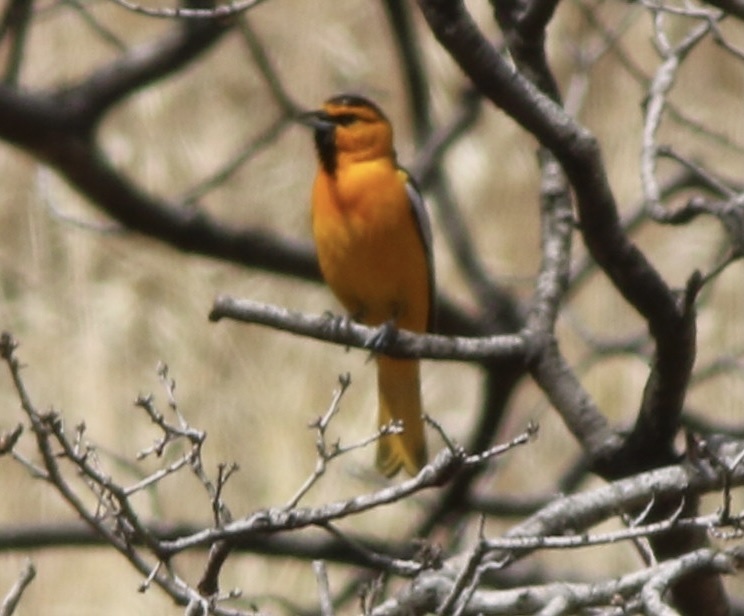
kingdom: Animalia
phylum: Chordata
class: Aves
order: Passeriformes
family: Icteridae
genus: Icterus
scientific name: Icterus bullockii
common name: Bullock's oriole
